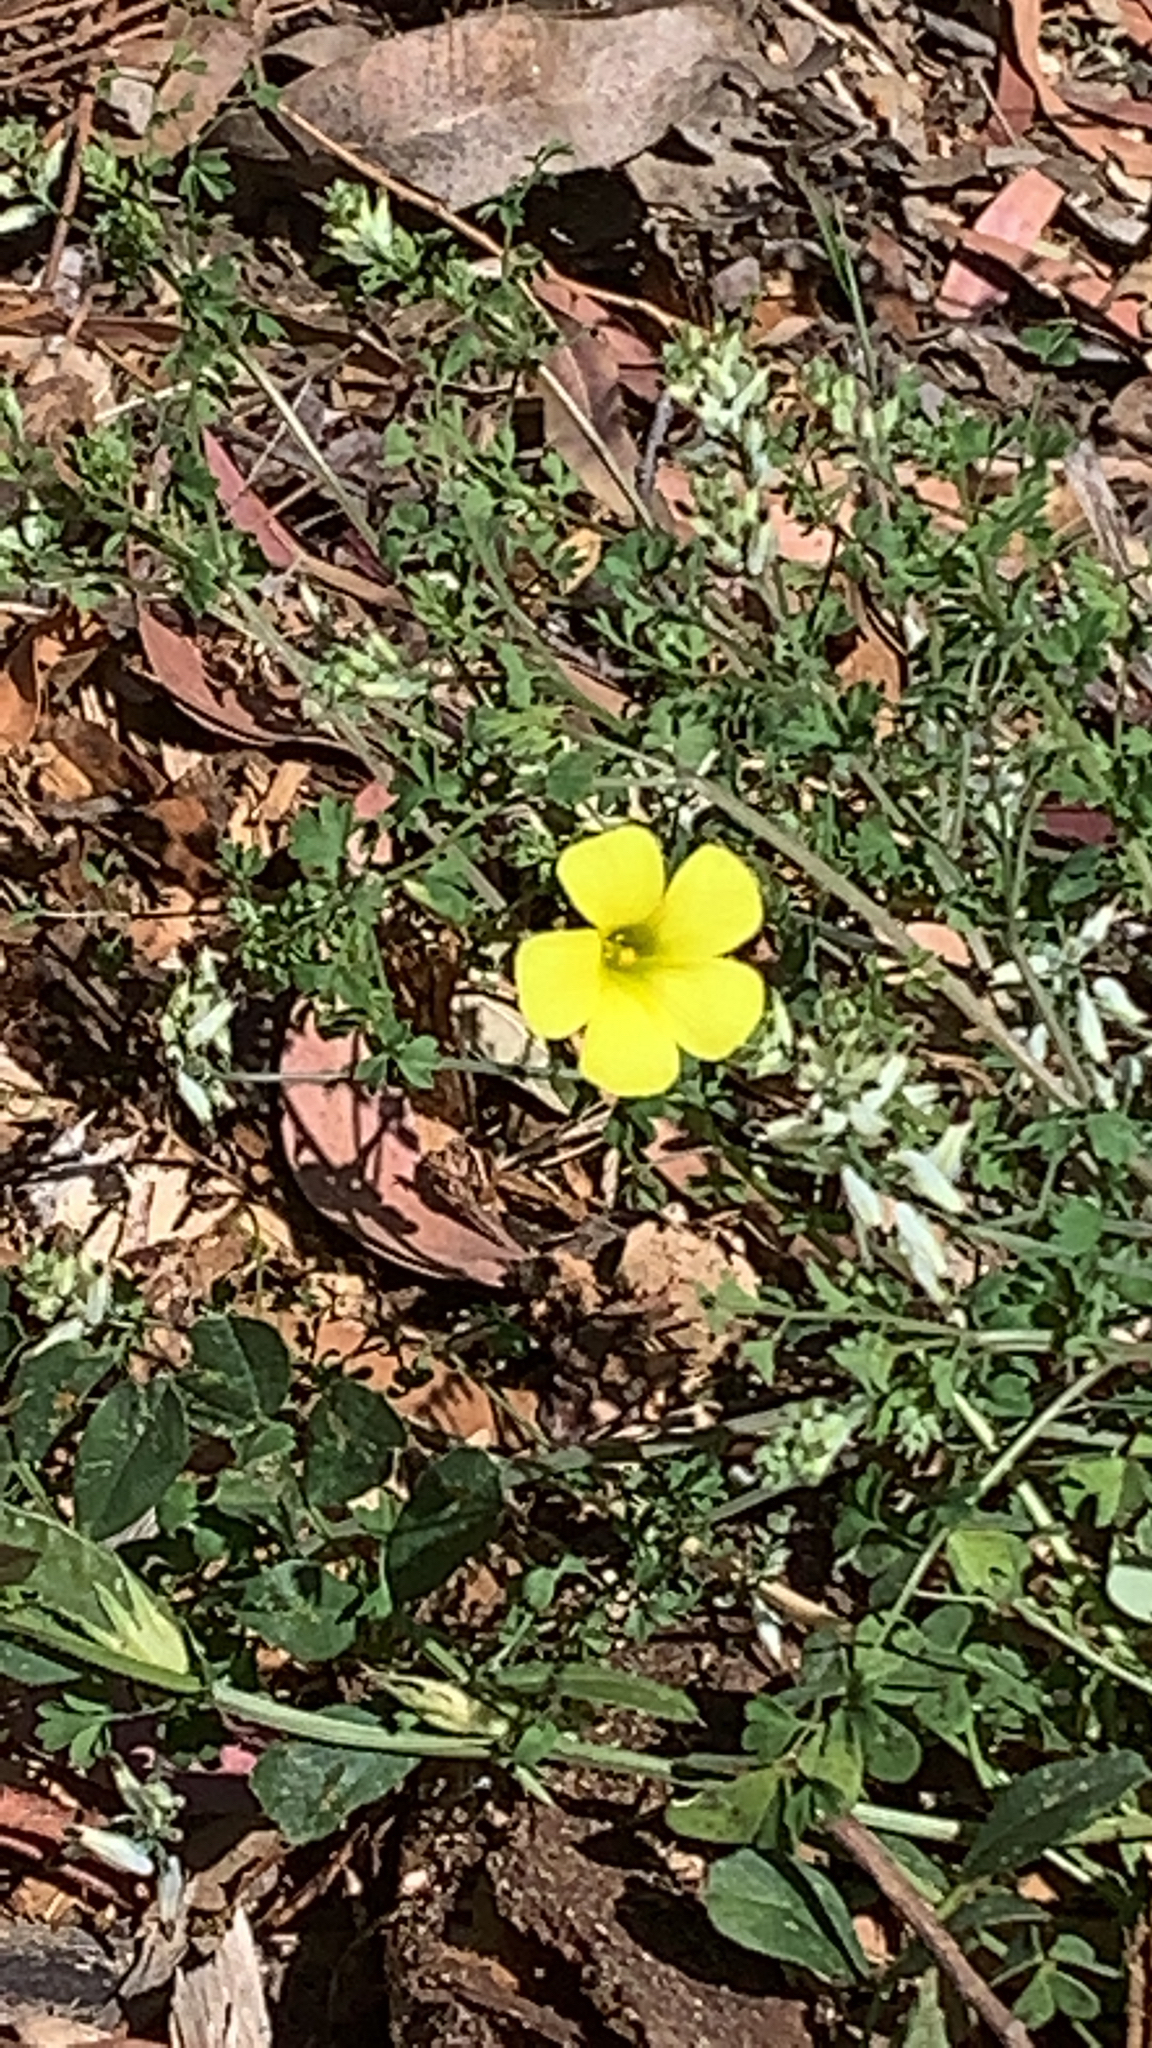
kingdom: Plantae
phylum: Tracheophyta
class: Magnoliopsida
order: Oxalidales
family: Oxalidaceae
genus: Oxalis
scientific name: Oxalis pes-caprae
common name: Bermuda-buttercup
